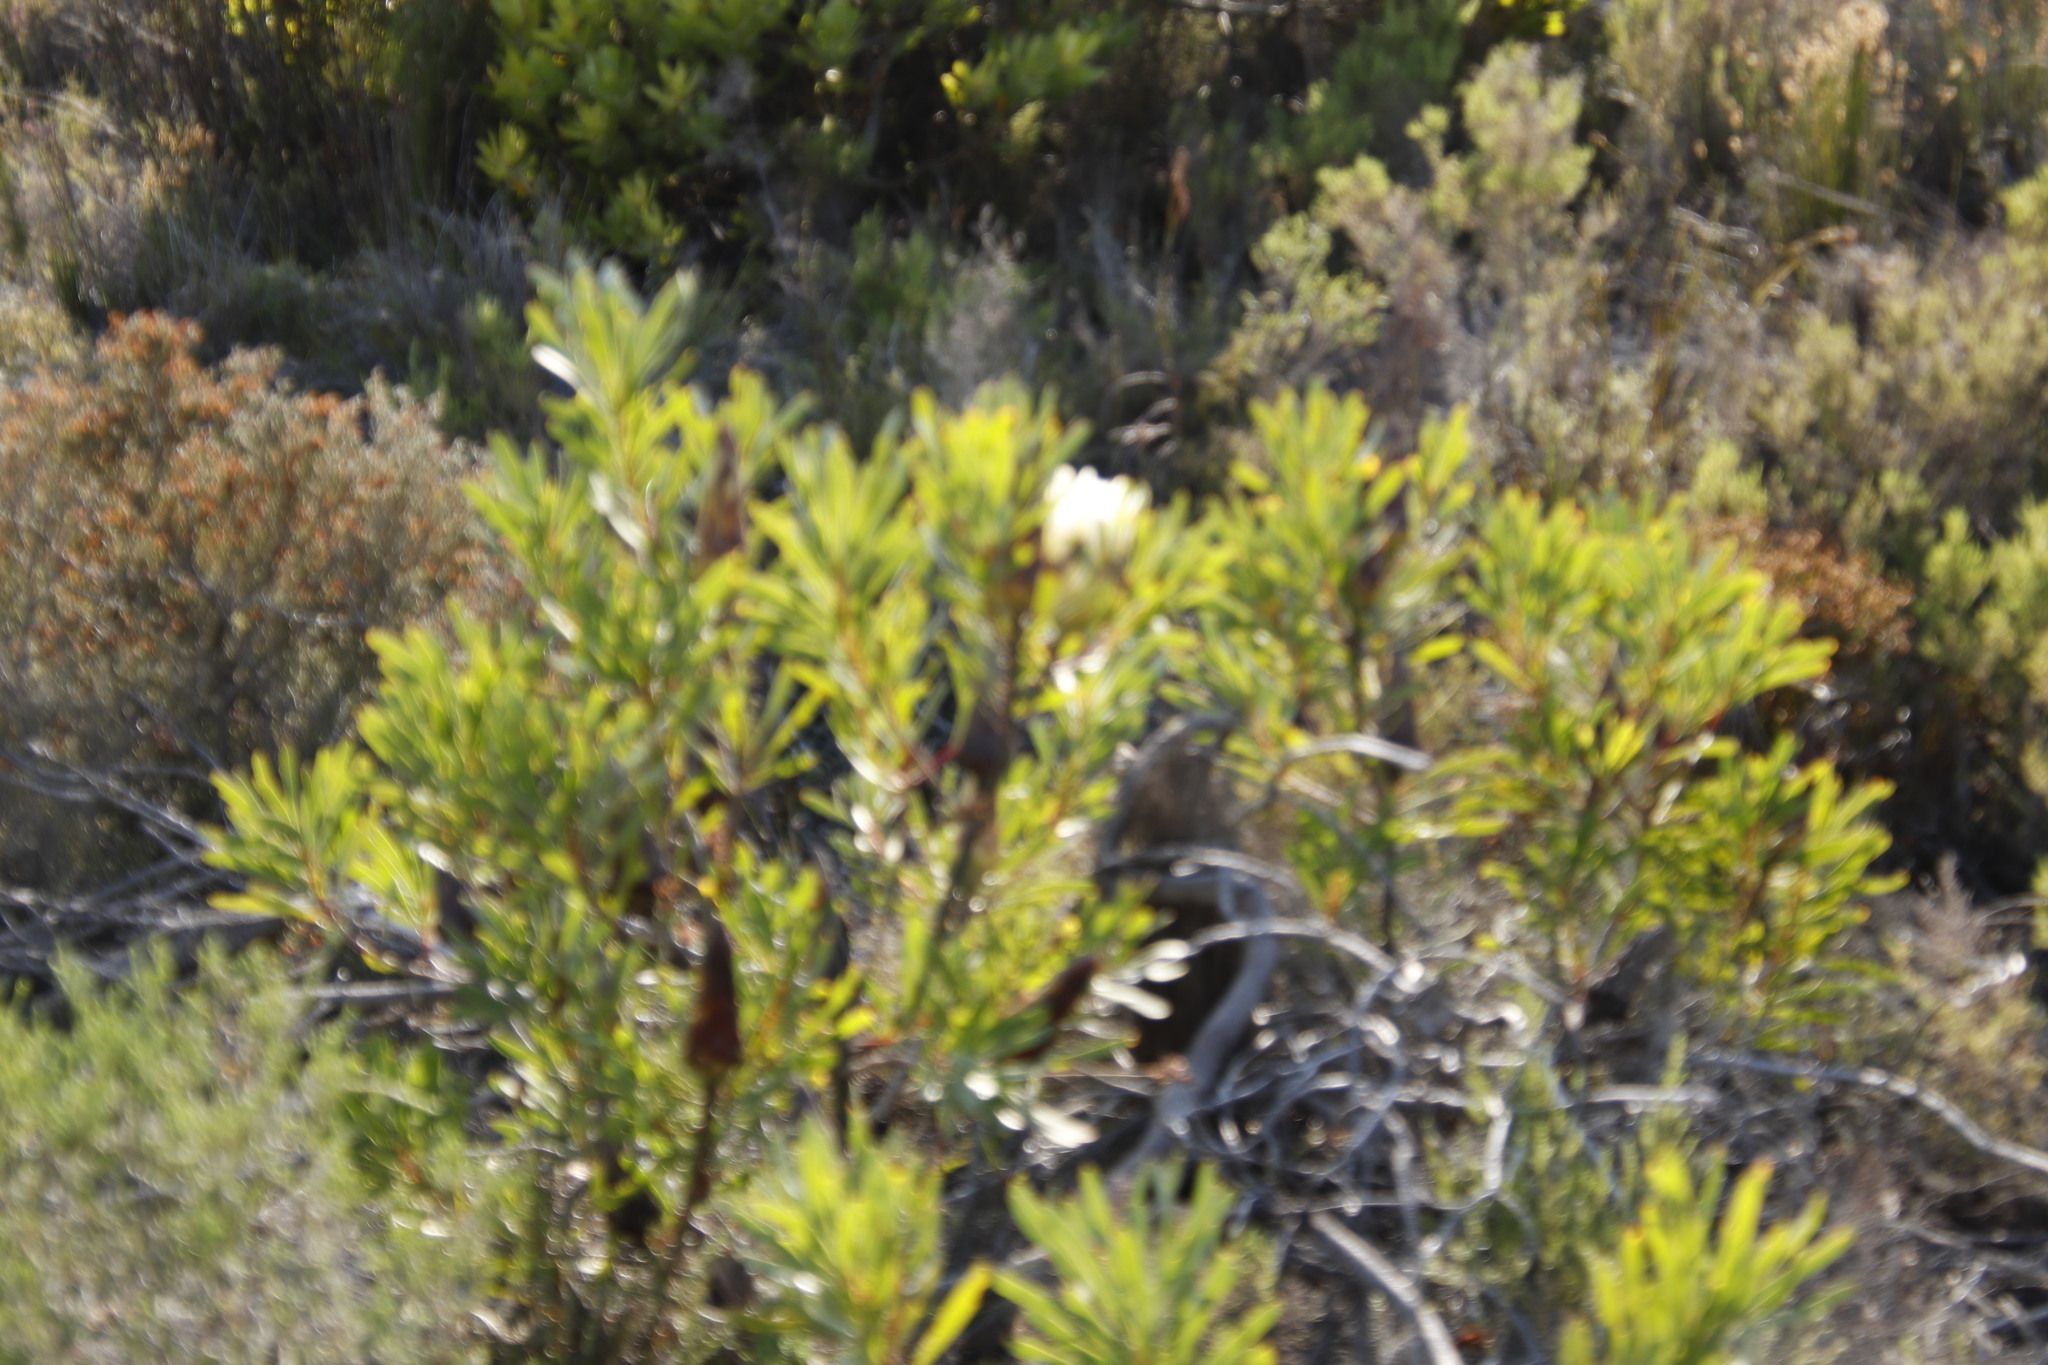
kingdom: Plantae
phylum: Tracheophyta
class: Magnoliopsida
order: Proteales
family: Proteaceae
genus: Protea
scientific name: Protea repens
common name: Sugarbush
